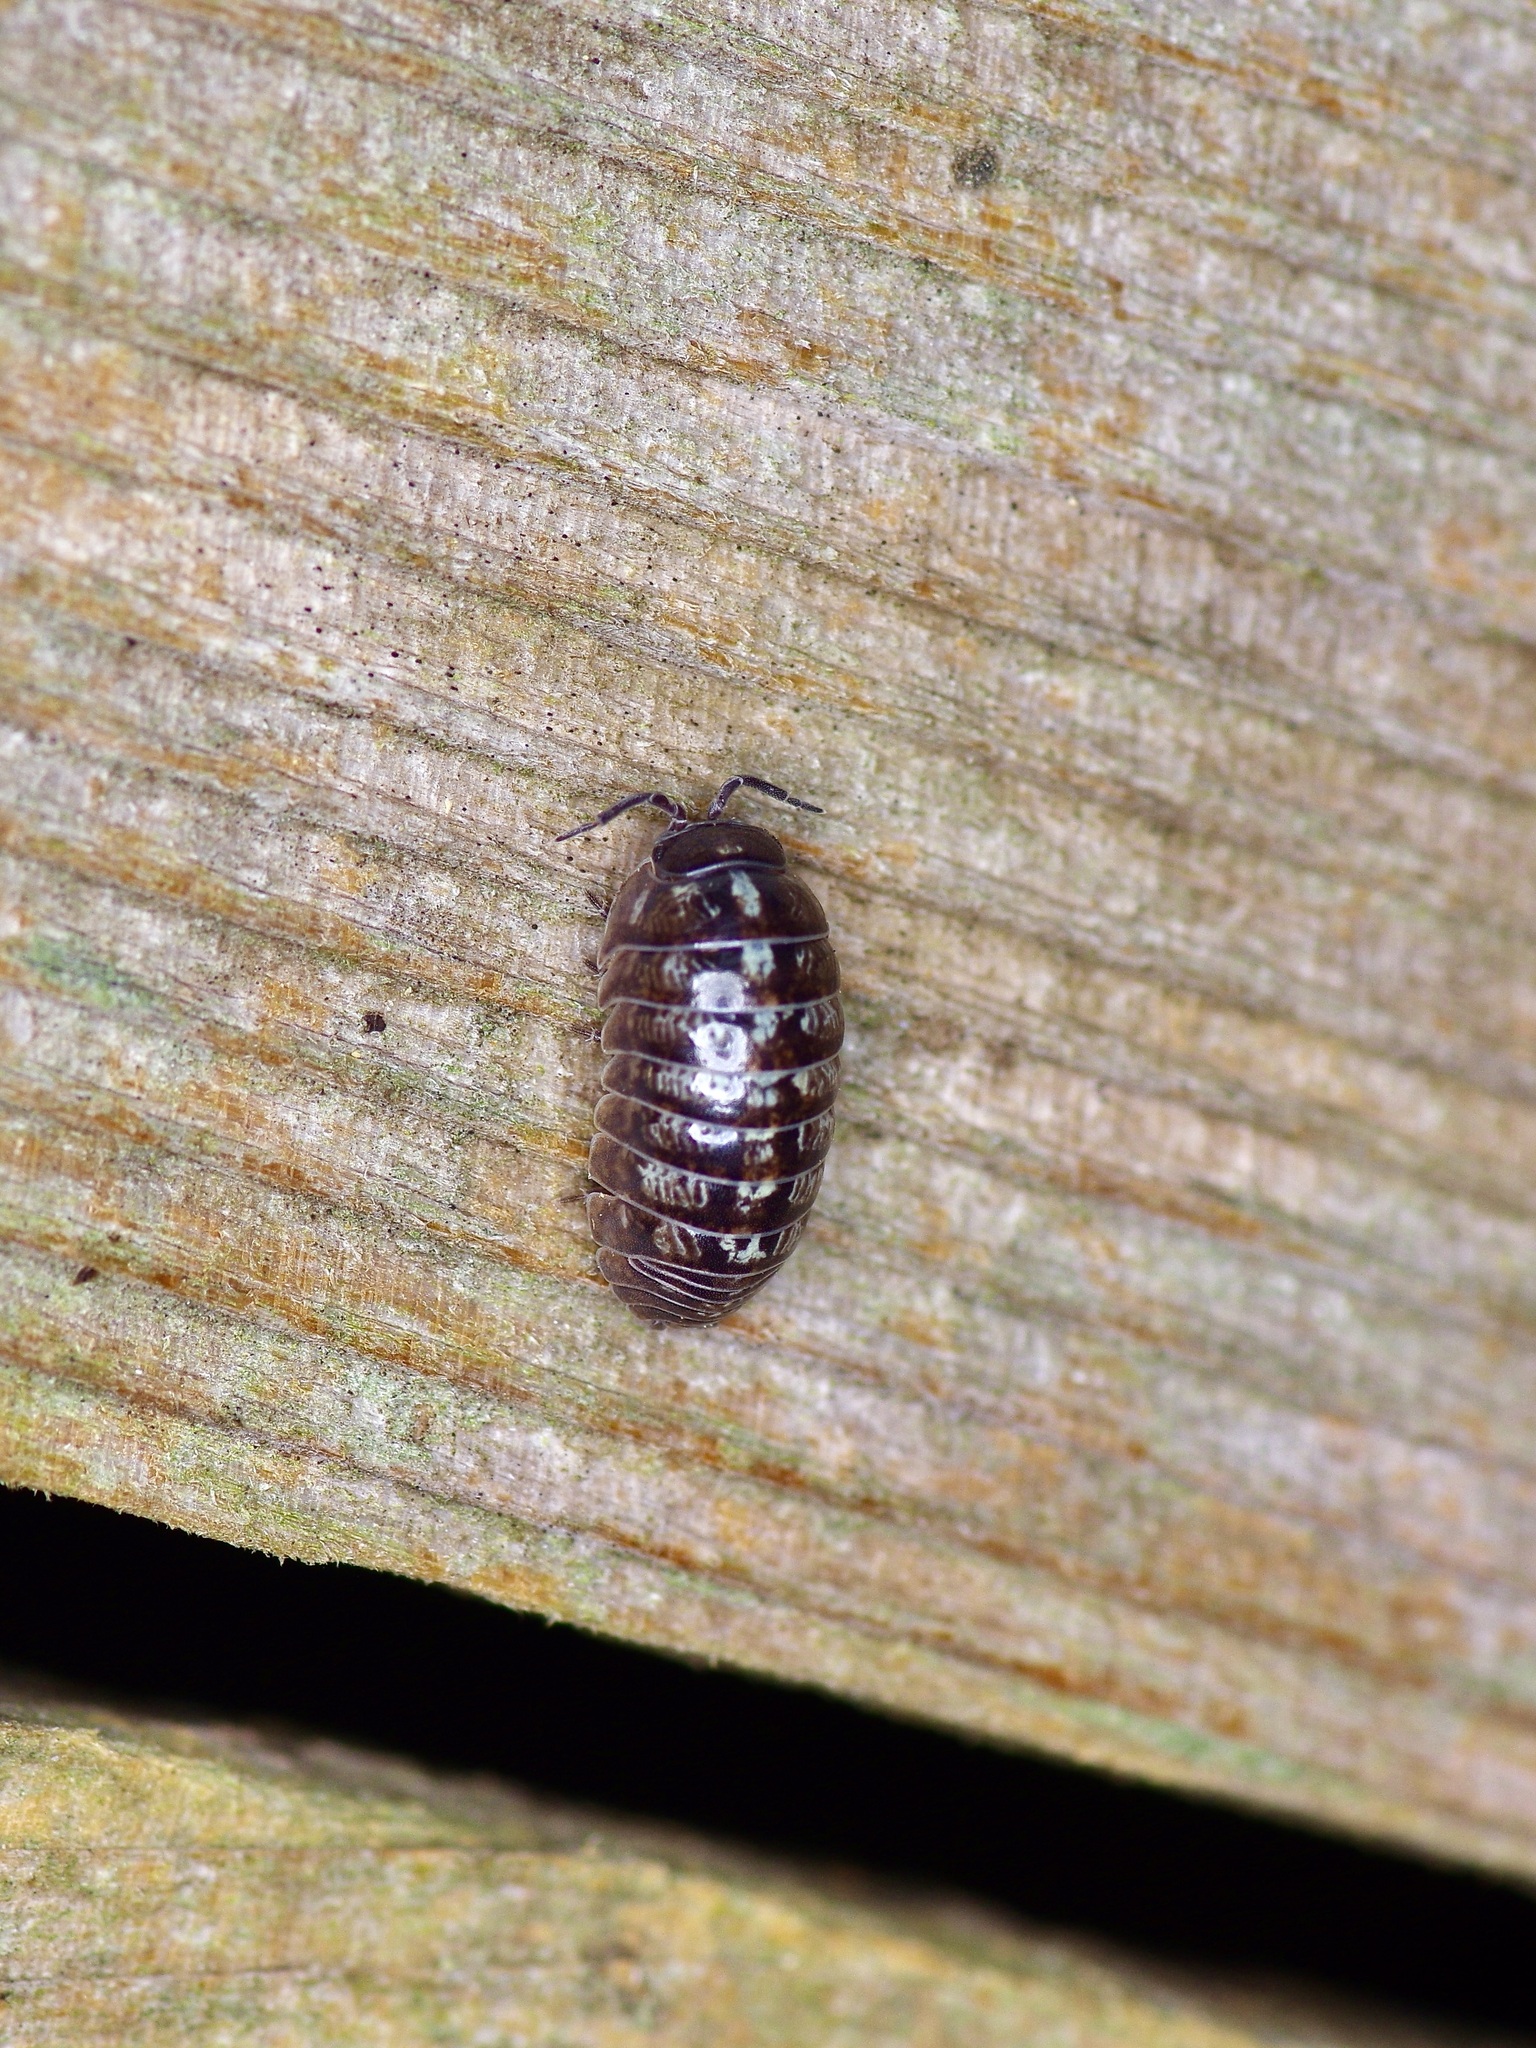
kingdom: Animalia
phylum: Arthropoda
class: Malacostraca
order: Isopoda
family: Armadillidiidae
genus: Armadillidium
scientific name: Armadillidium vulgare
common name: Common pill woodlouse
